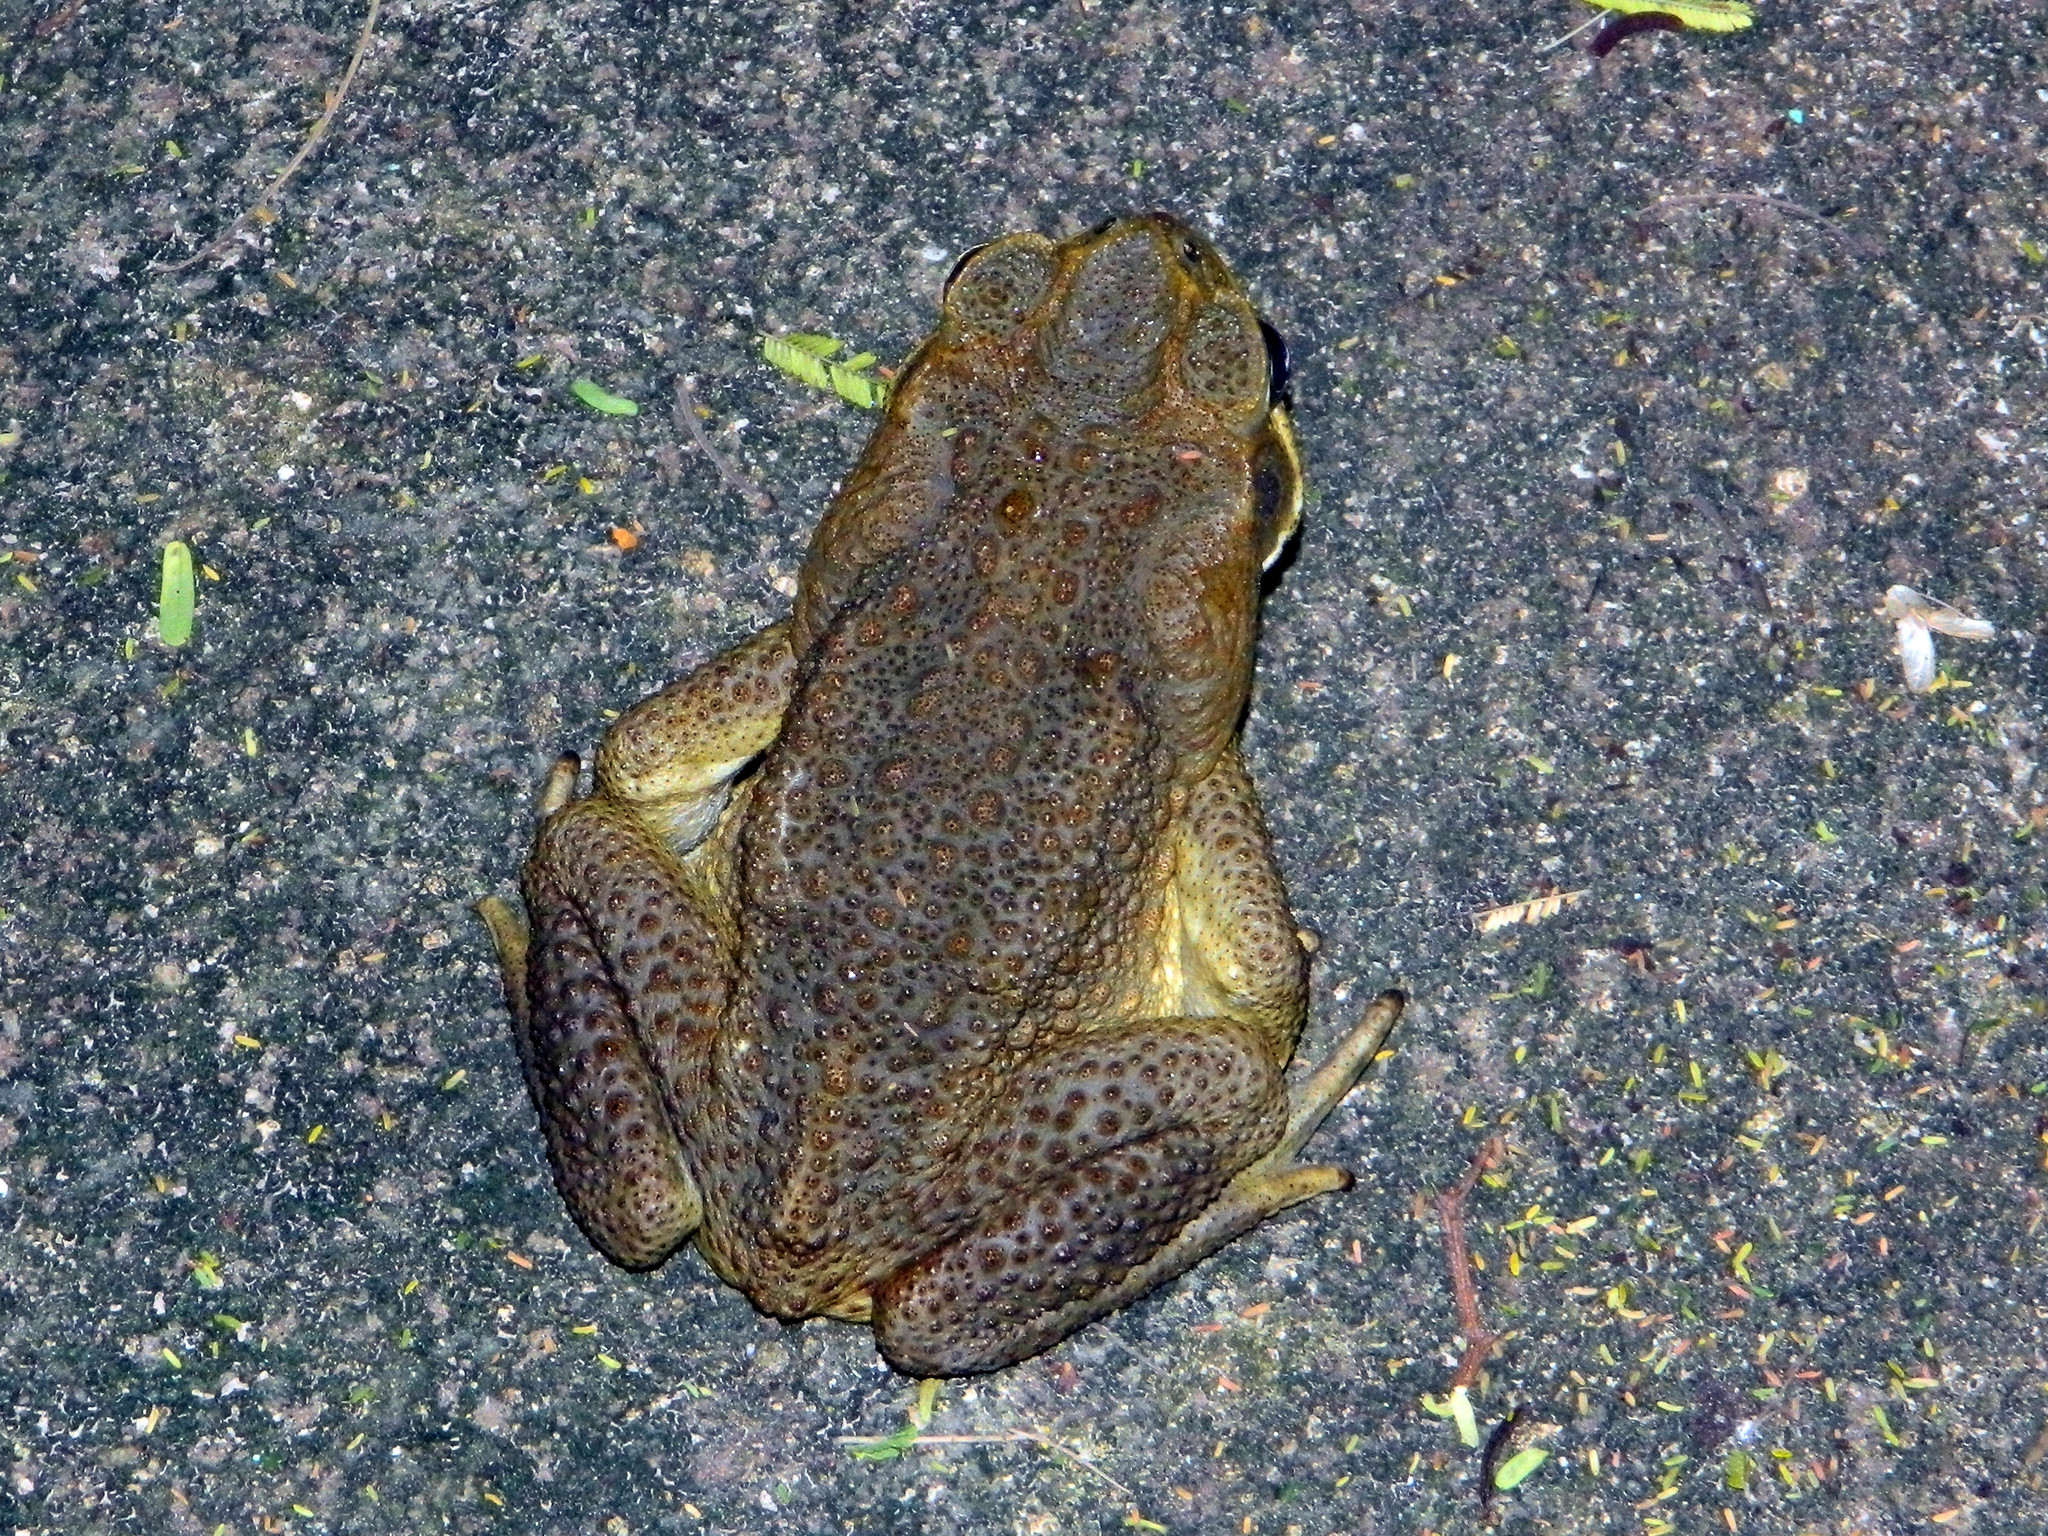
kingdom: Animalia
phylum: Chordata
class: Amphibia
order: Anura
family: Bufonidae
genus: Rhinella
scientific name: Rhinella marina
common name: Cane toad
